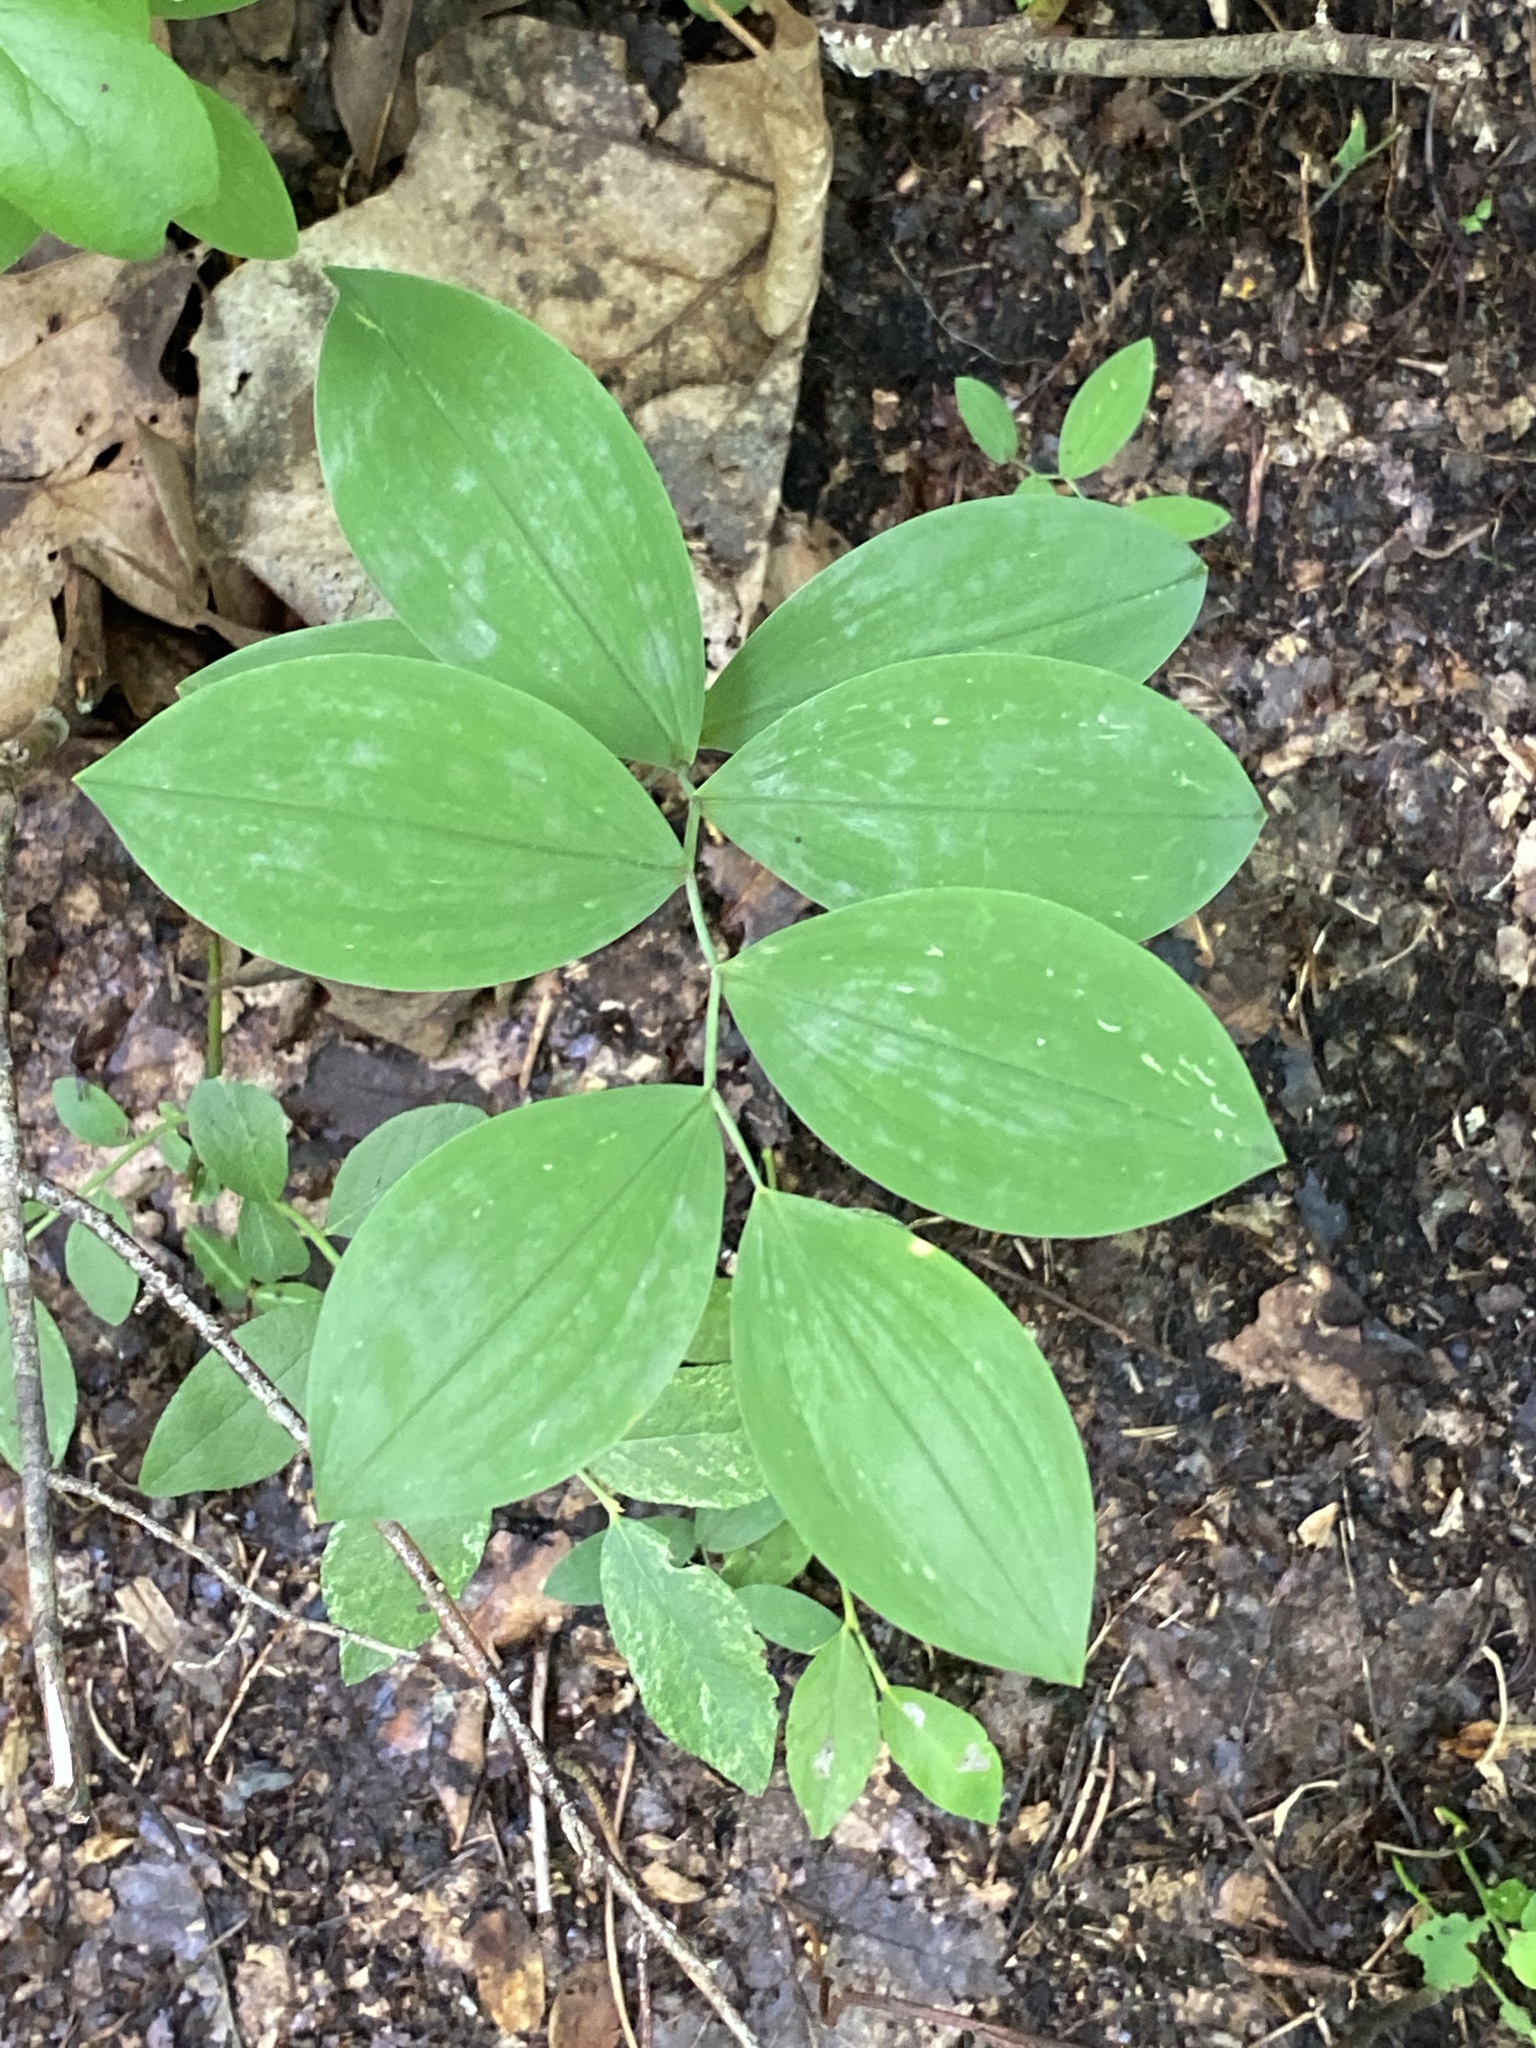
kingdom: Plantae
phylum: Tracheophyta
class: Liliopsida
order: Liliales
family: Colchicaceae
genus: Uvularia
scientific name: Uvularia sessilifolia
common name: Straw-lily
